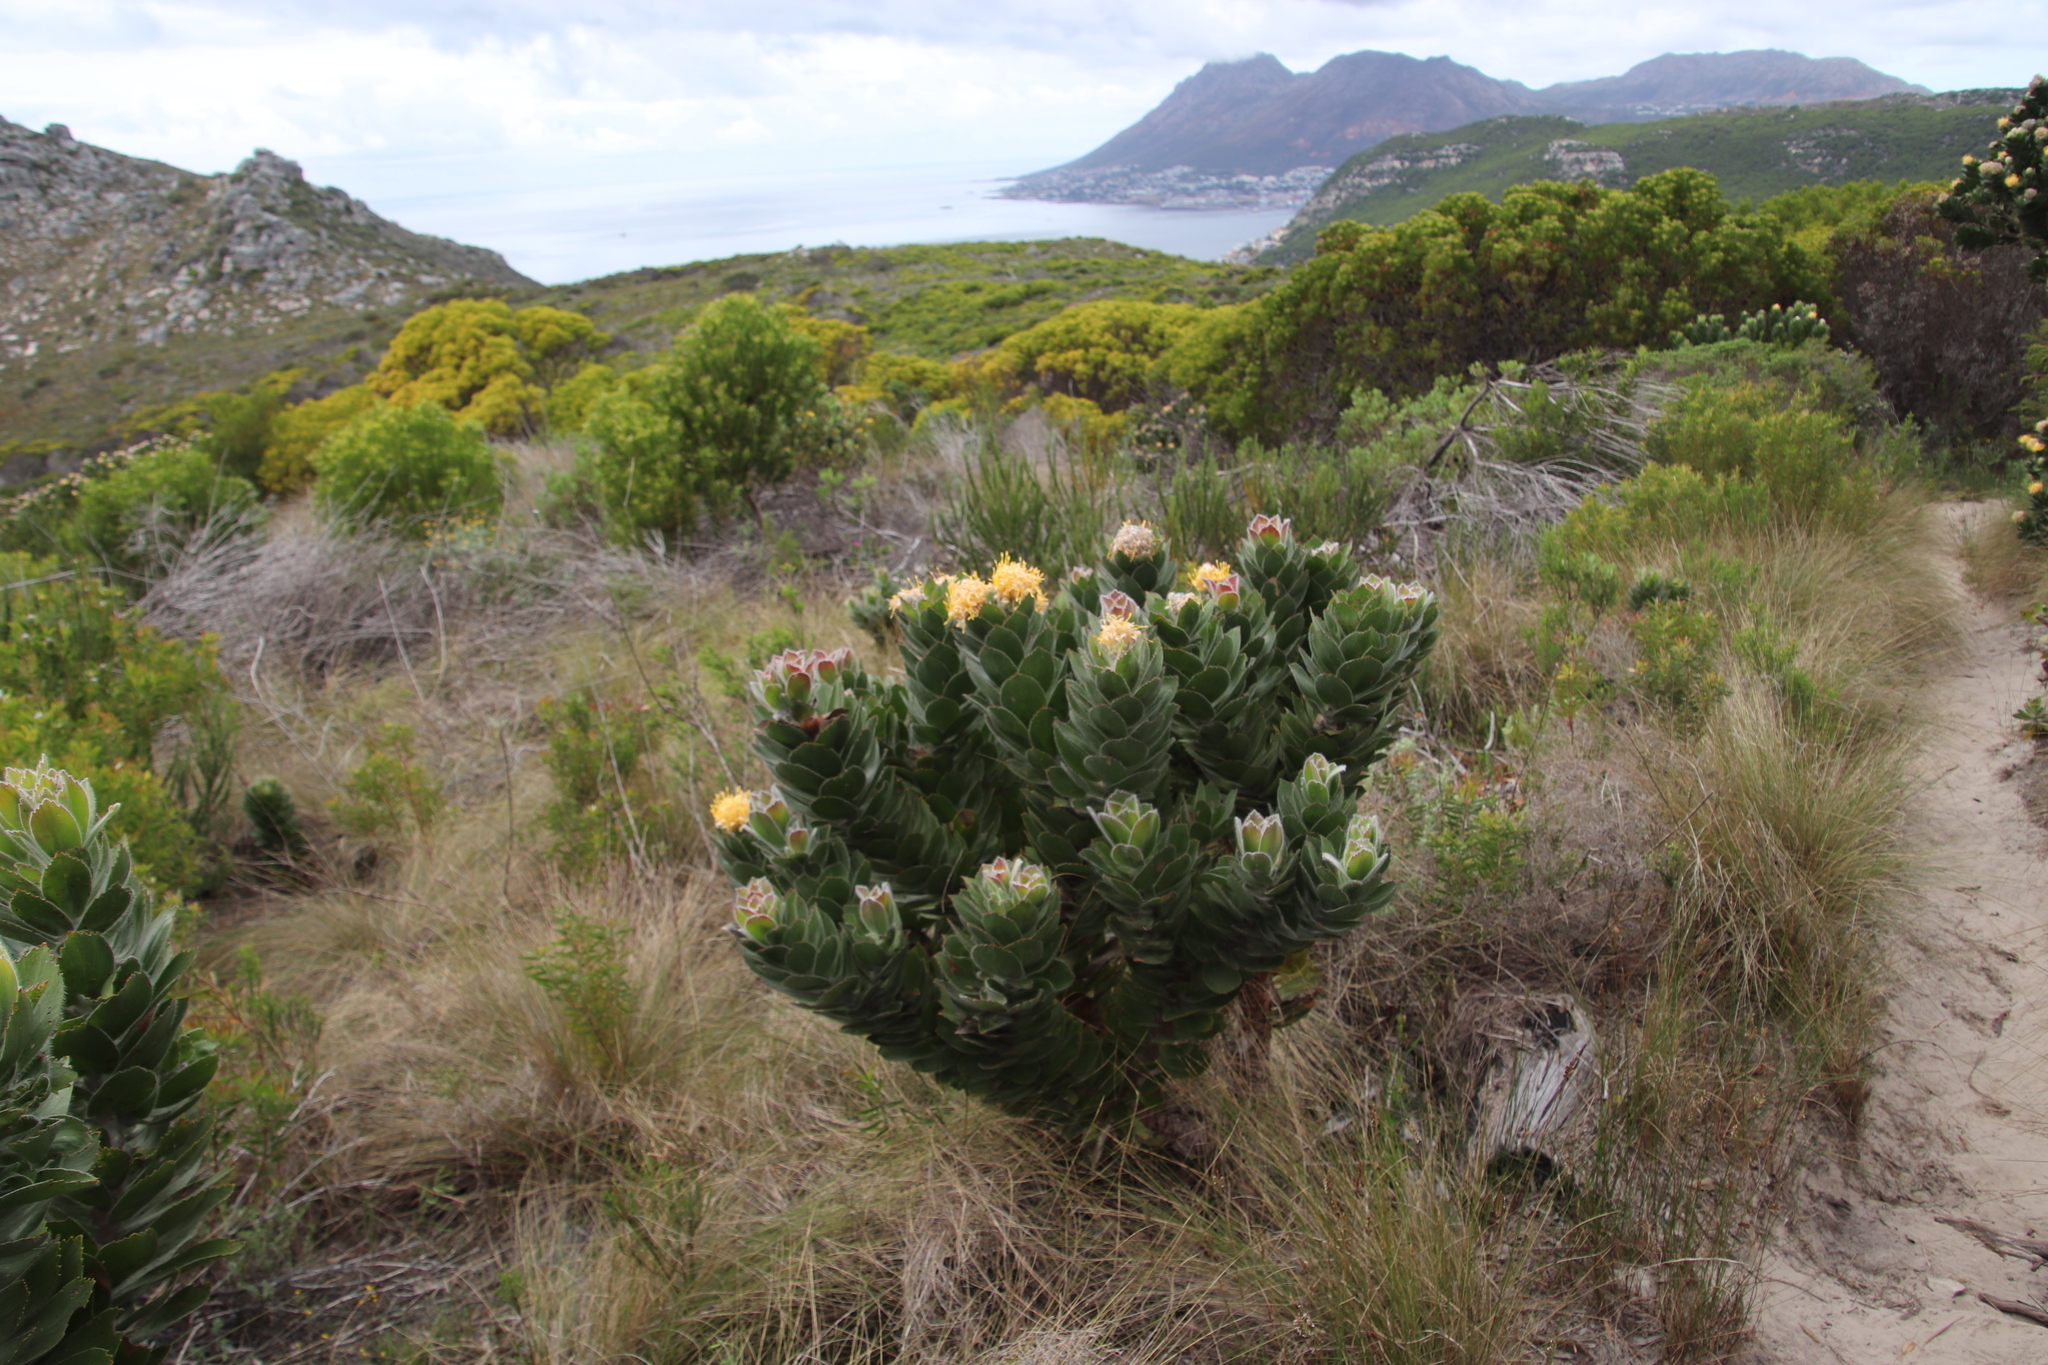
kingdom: Plantae
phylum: Tracheophyta
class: Magnoliopsida
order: Proteales
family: Proteaceae
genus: Leucospermum
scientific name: Leucospermum conocarpodendron
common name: Tree pincushion
